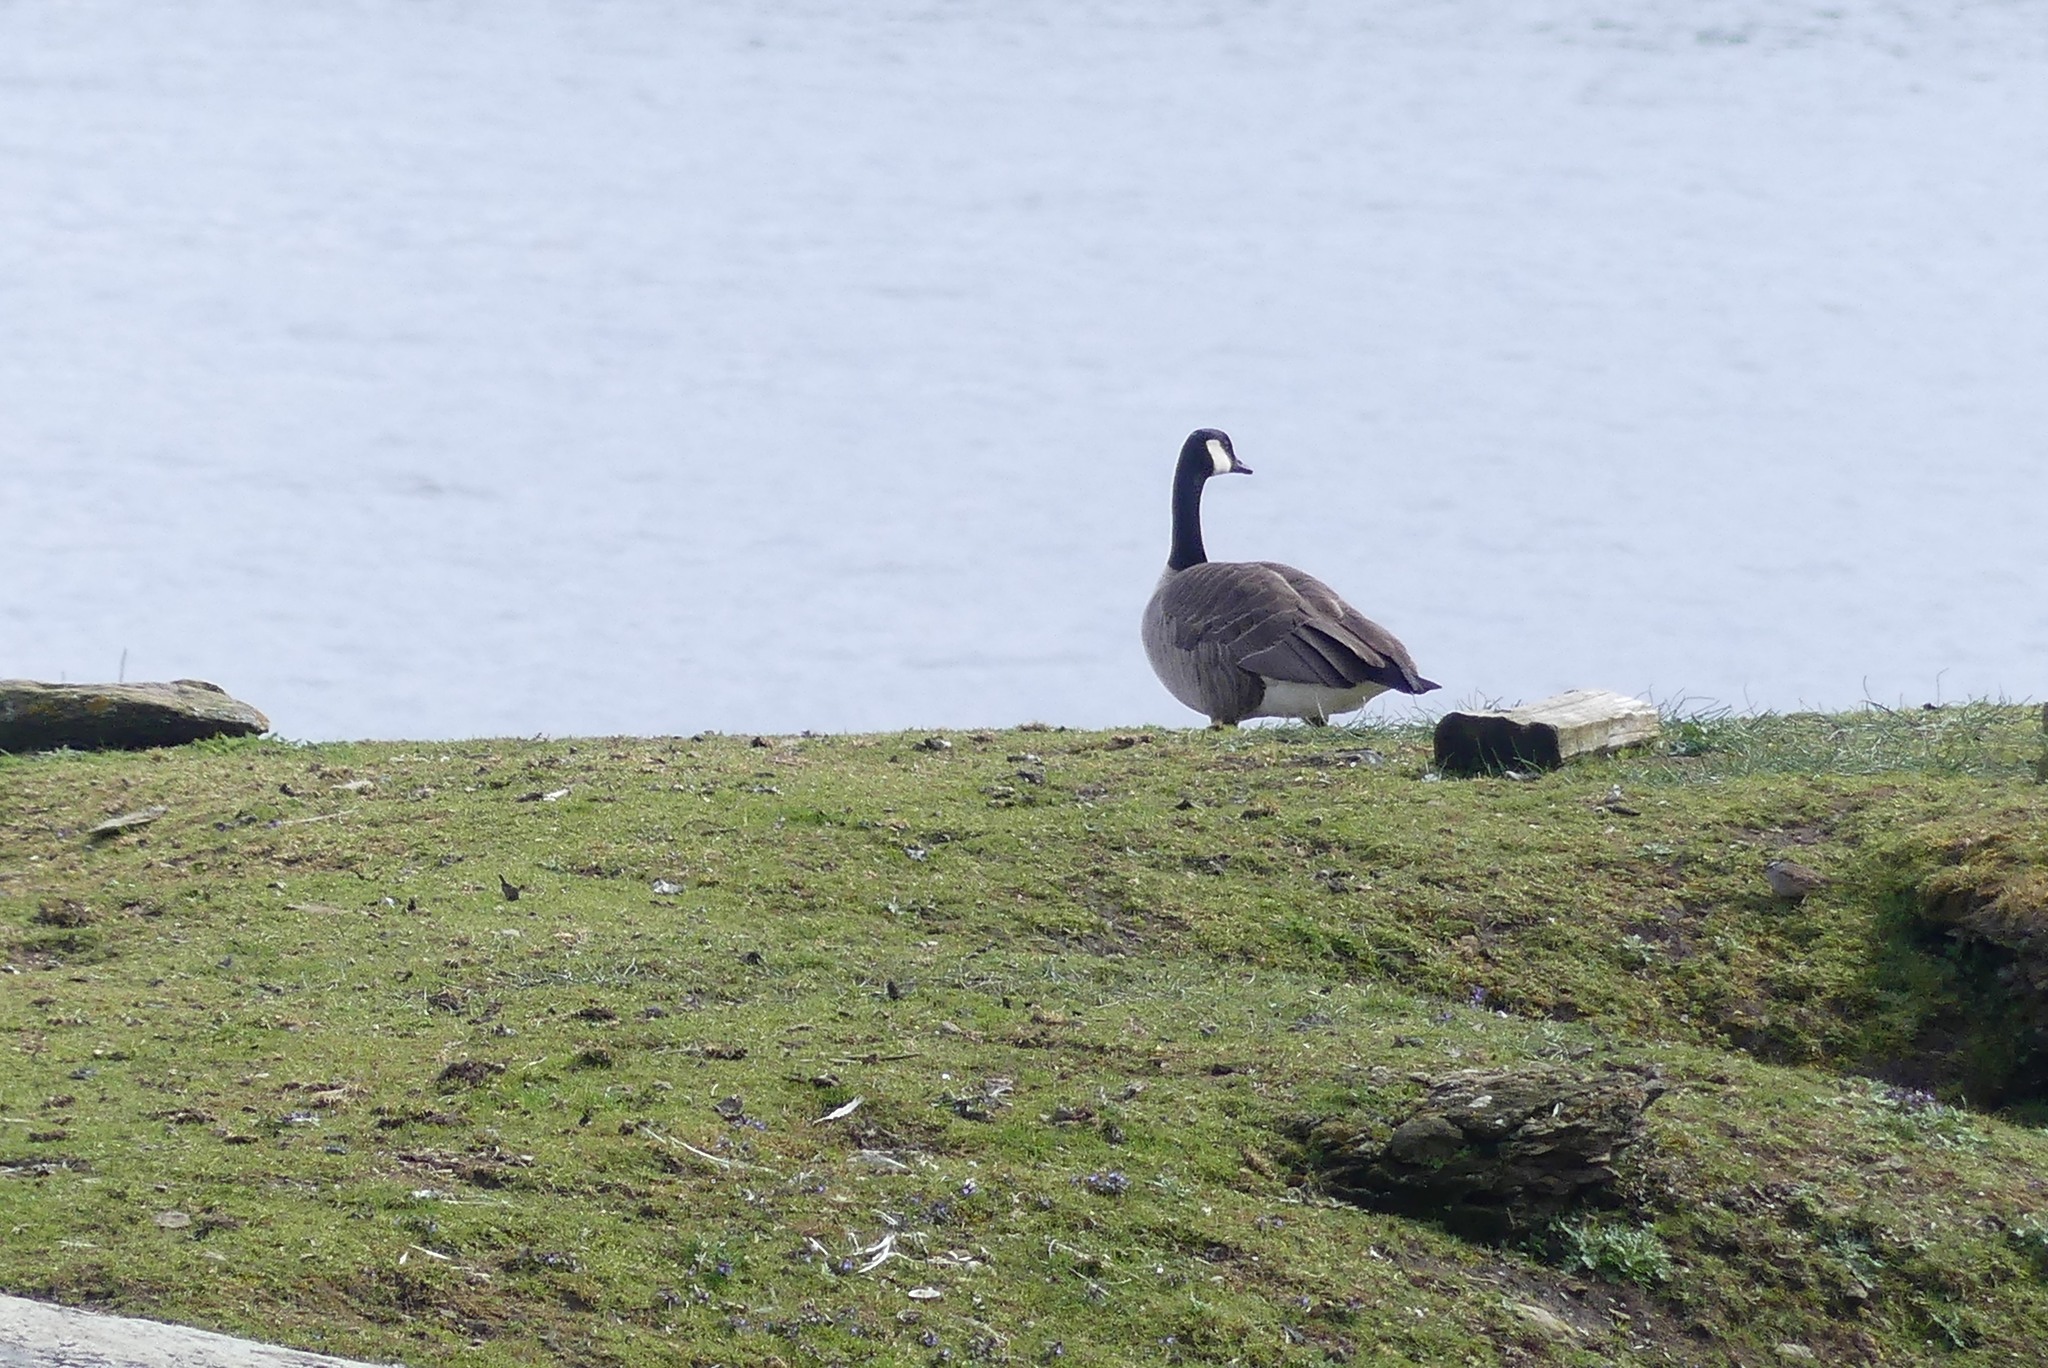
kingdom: Animalia
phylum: Chordata
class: Aves
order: Anseriformes
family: Anatidae
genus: Branta
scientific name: Branta canadensis
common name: Canada goose
